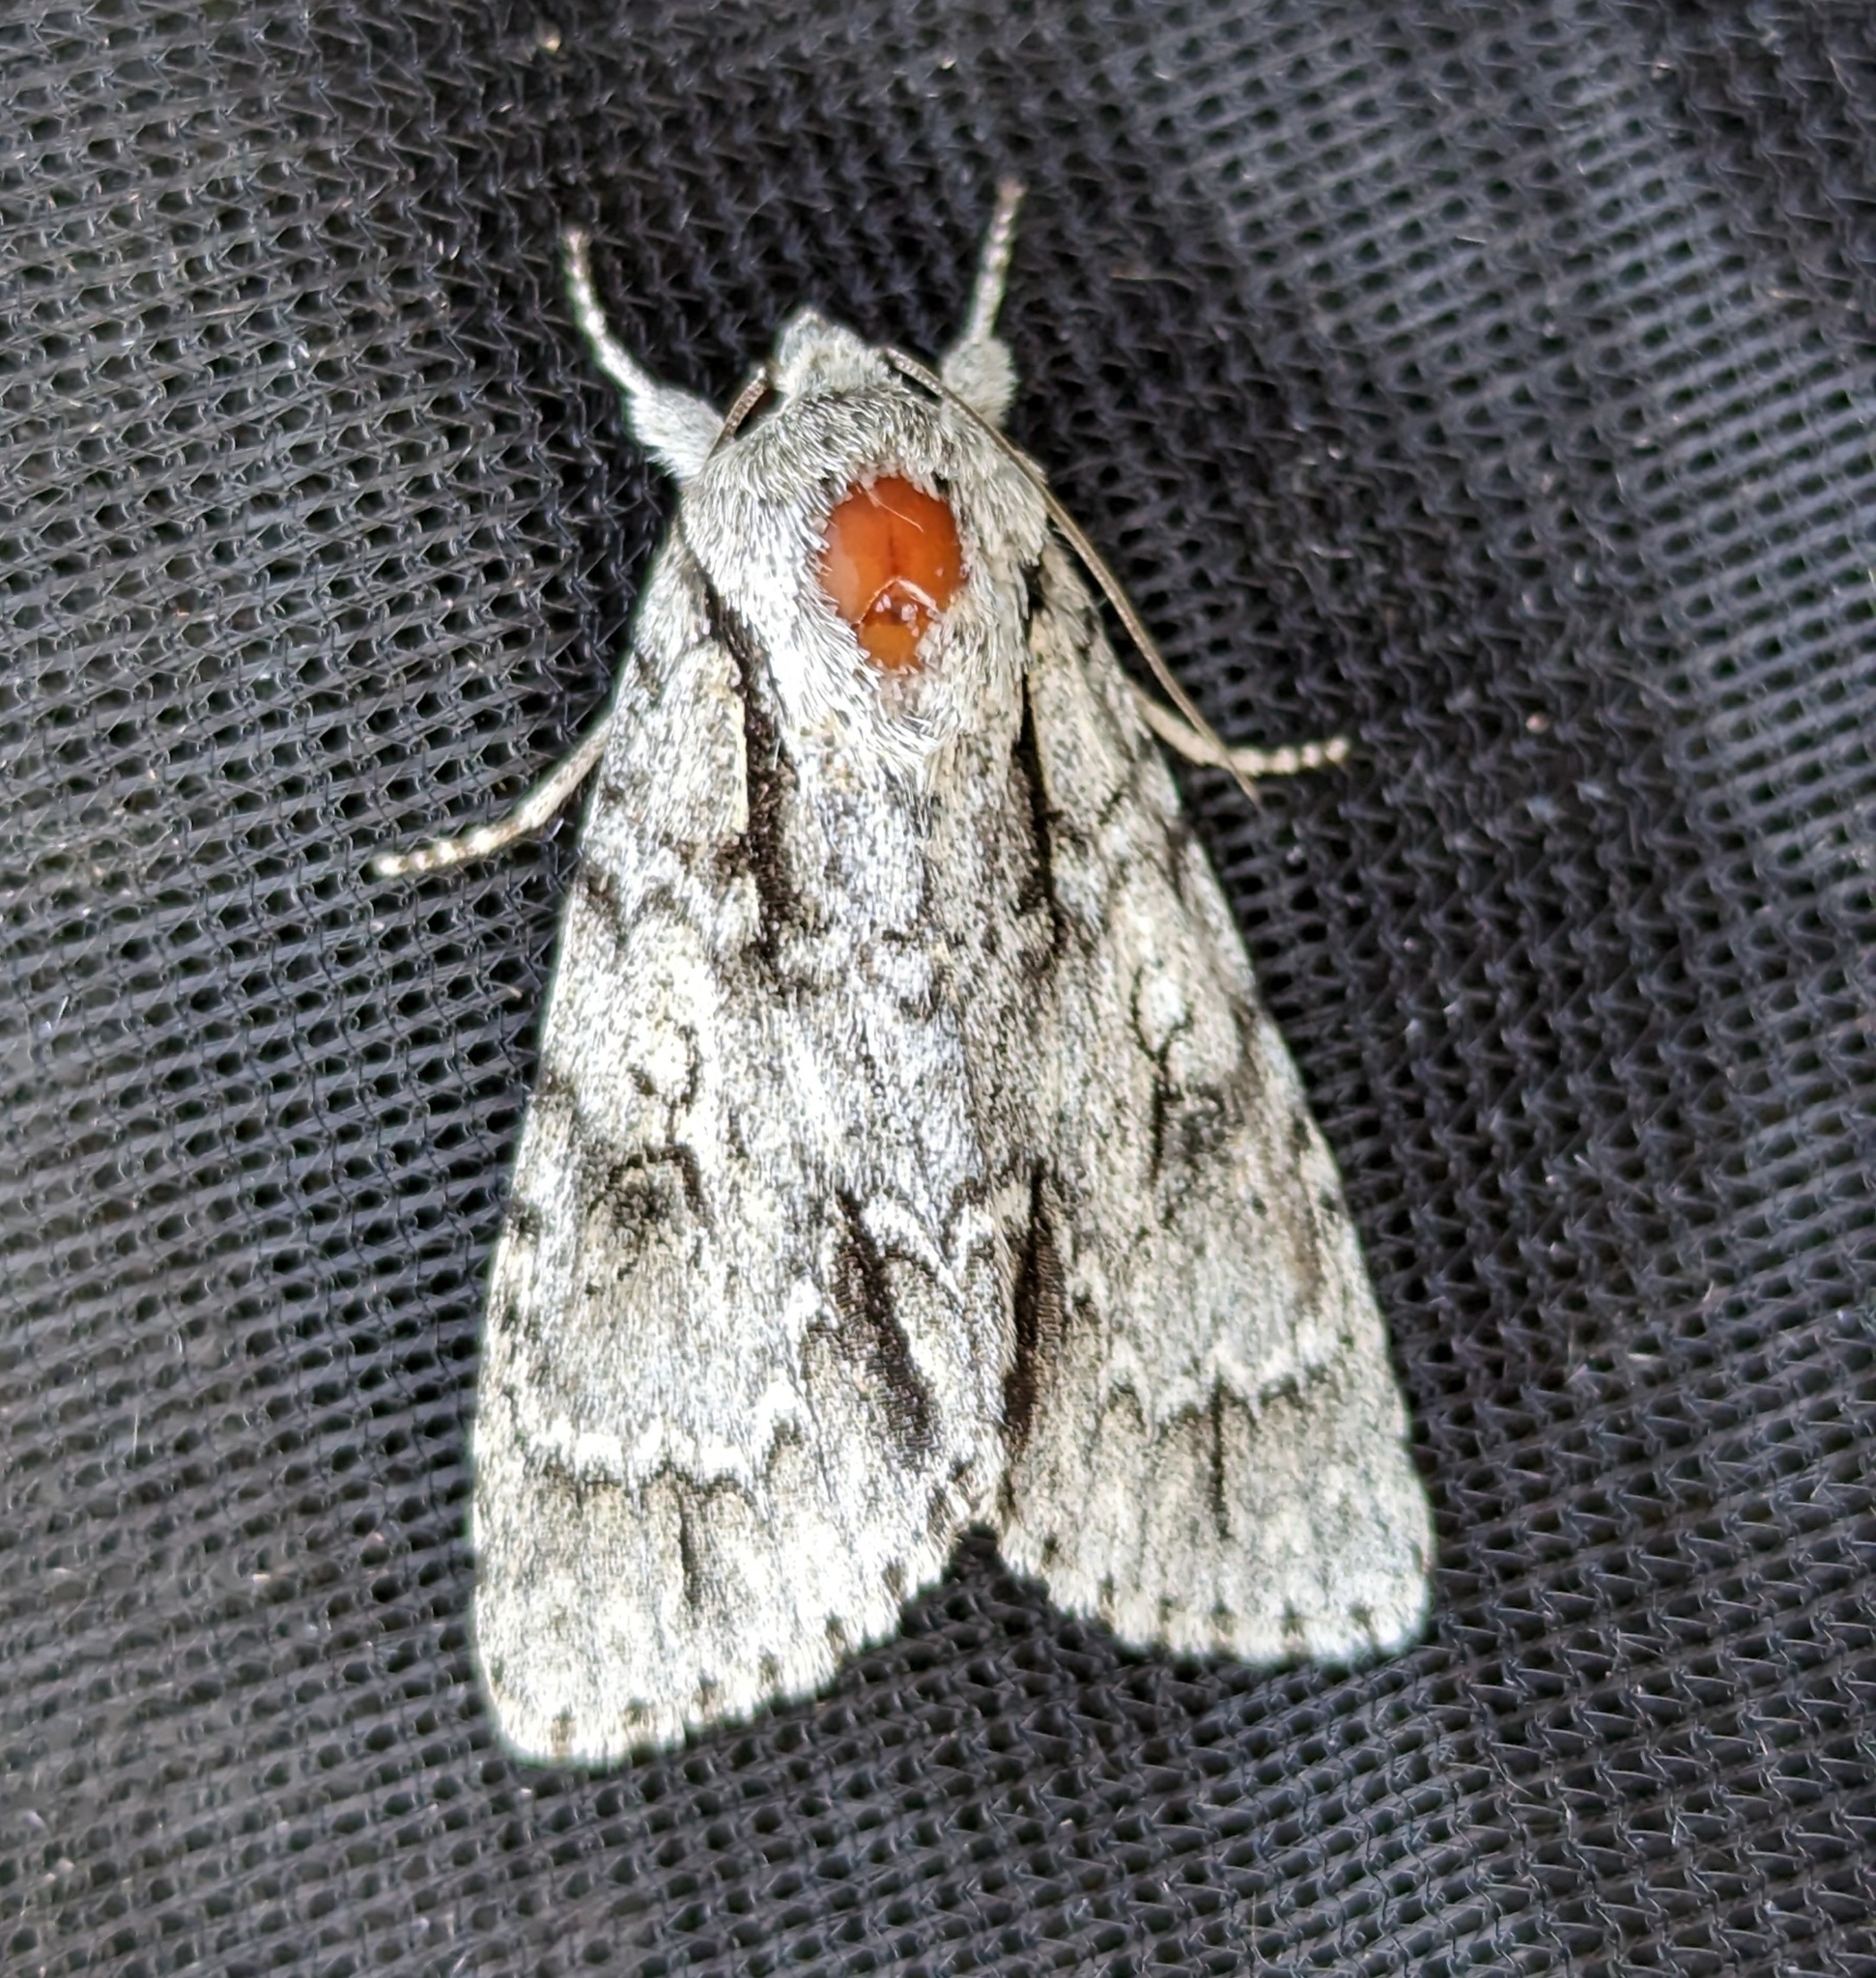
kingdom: Animalia
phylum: Arthropoda
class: Insecta
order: Lepidoptera
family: Noctuidae
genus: Acronicta
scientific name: Acronicta hasta
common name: Cherry dagger
